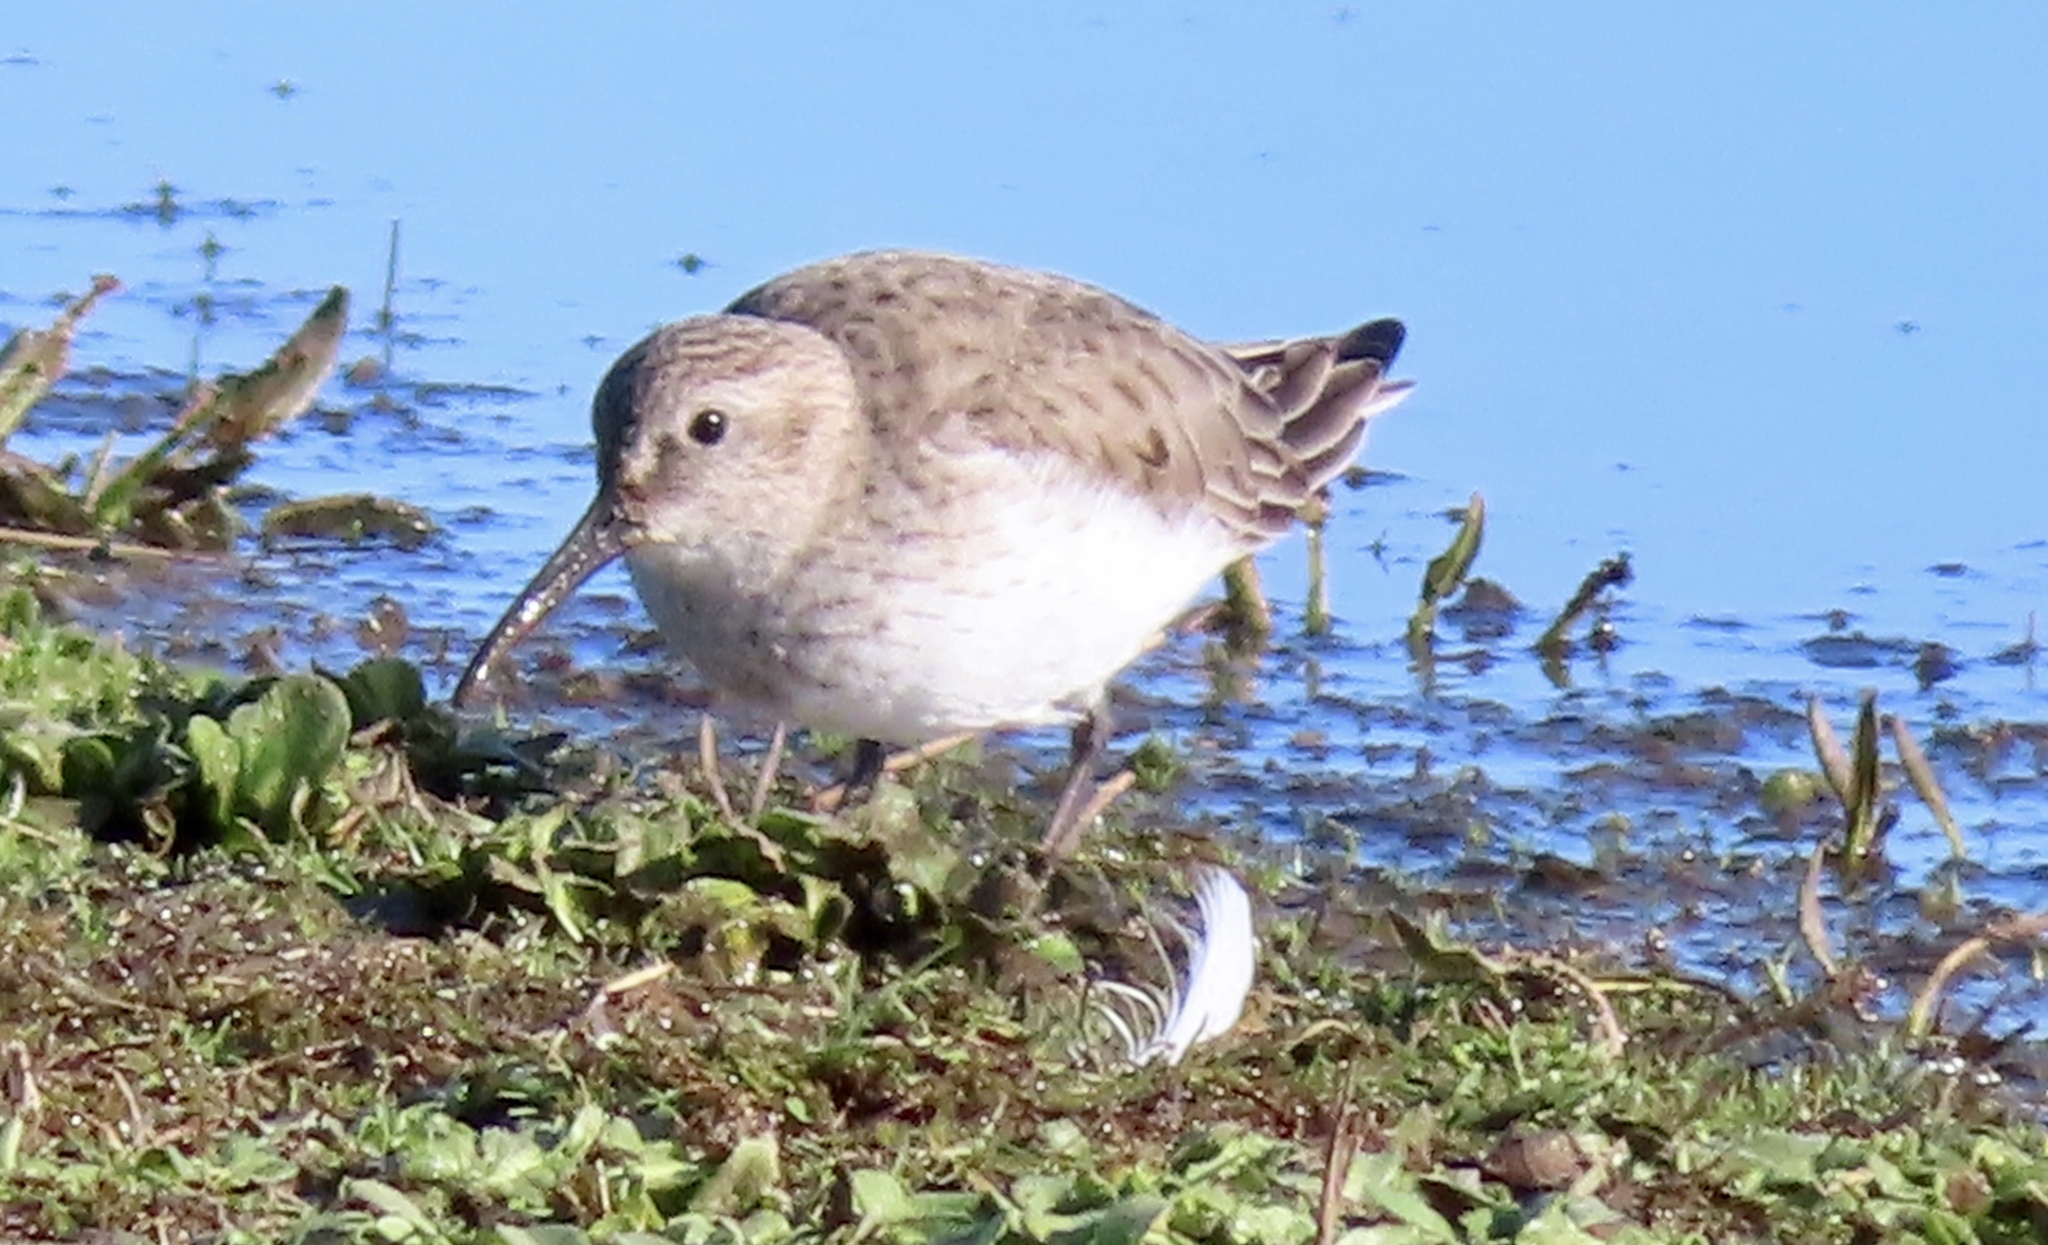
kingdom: Animalia
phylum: Chordata
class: Aves
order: Charadriiformes
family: Scolopacidae
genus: Calidris
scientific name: Calidris alpina
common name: Dunlin
